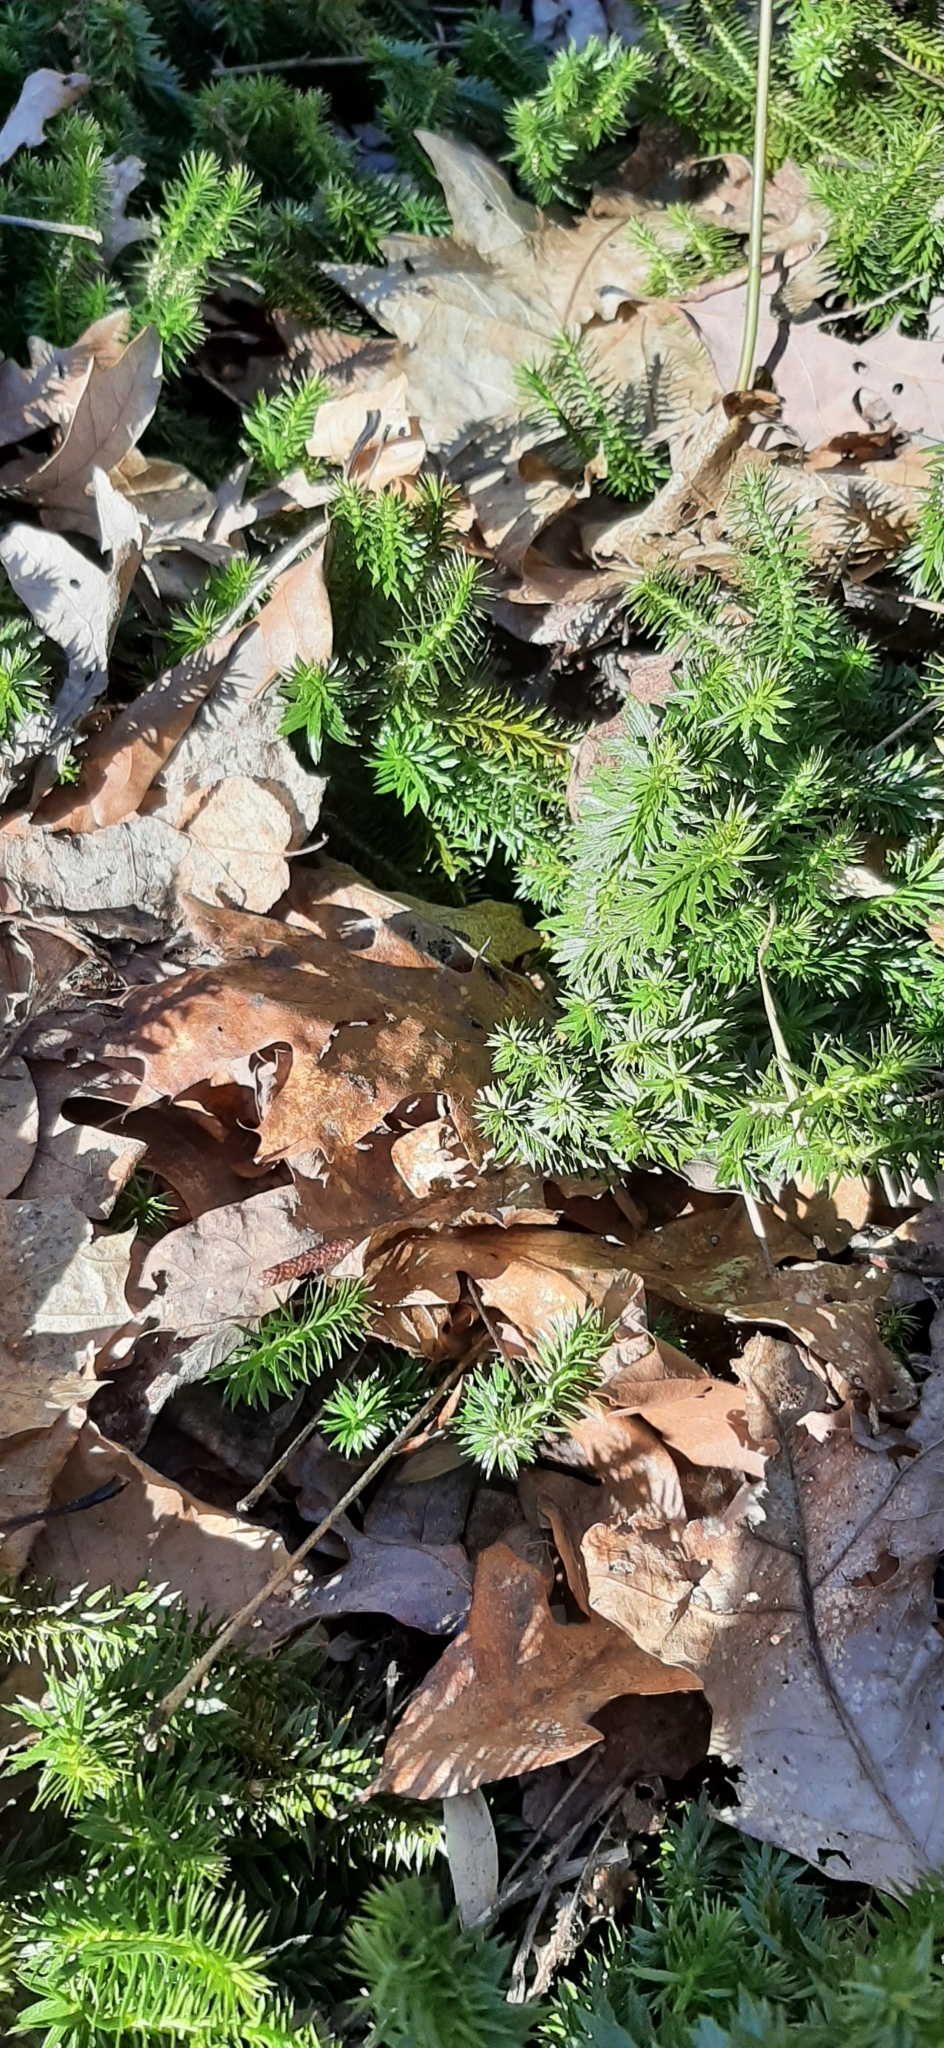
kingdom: Plantae
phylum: Tracheophyta
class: Lycopodiopsida
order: Lycopodiales
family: Lycopodiaceae
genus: Huperzia
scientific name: Huperzia lucidula
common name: Shining clubmoss
